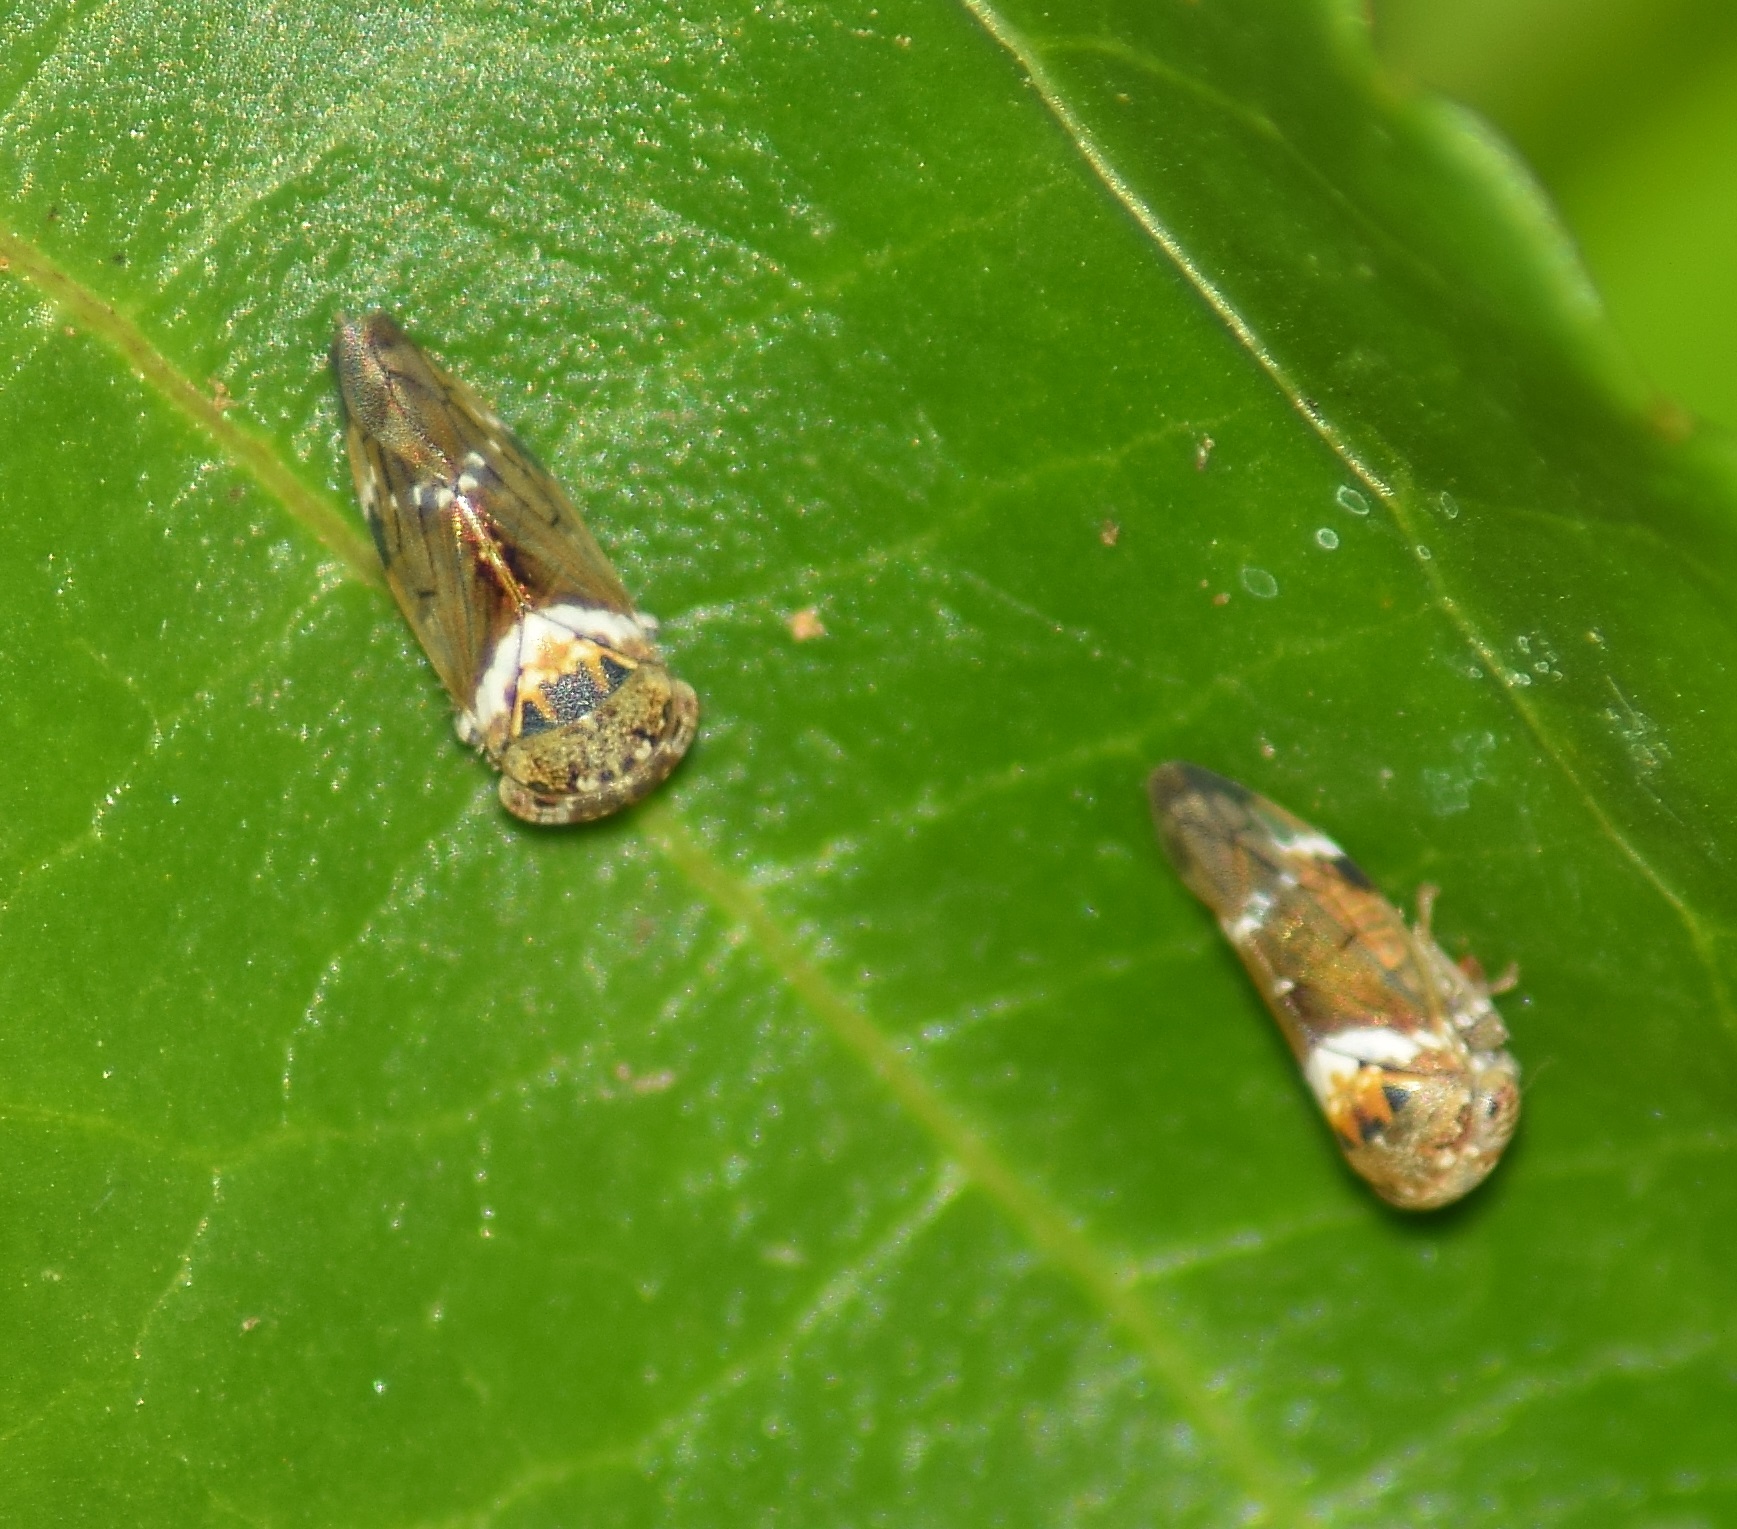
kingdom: Animalia
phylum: Arthropoda
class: Insecta
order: Hemiptera
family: Cicadellidae
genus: Idioscopus
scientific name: Idioscopus nitidulus
